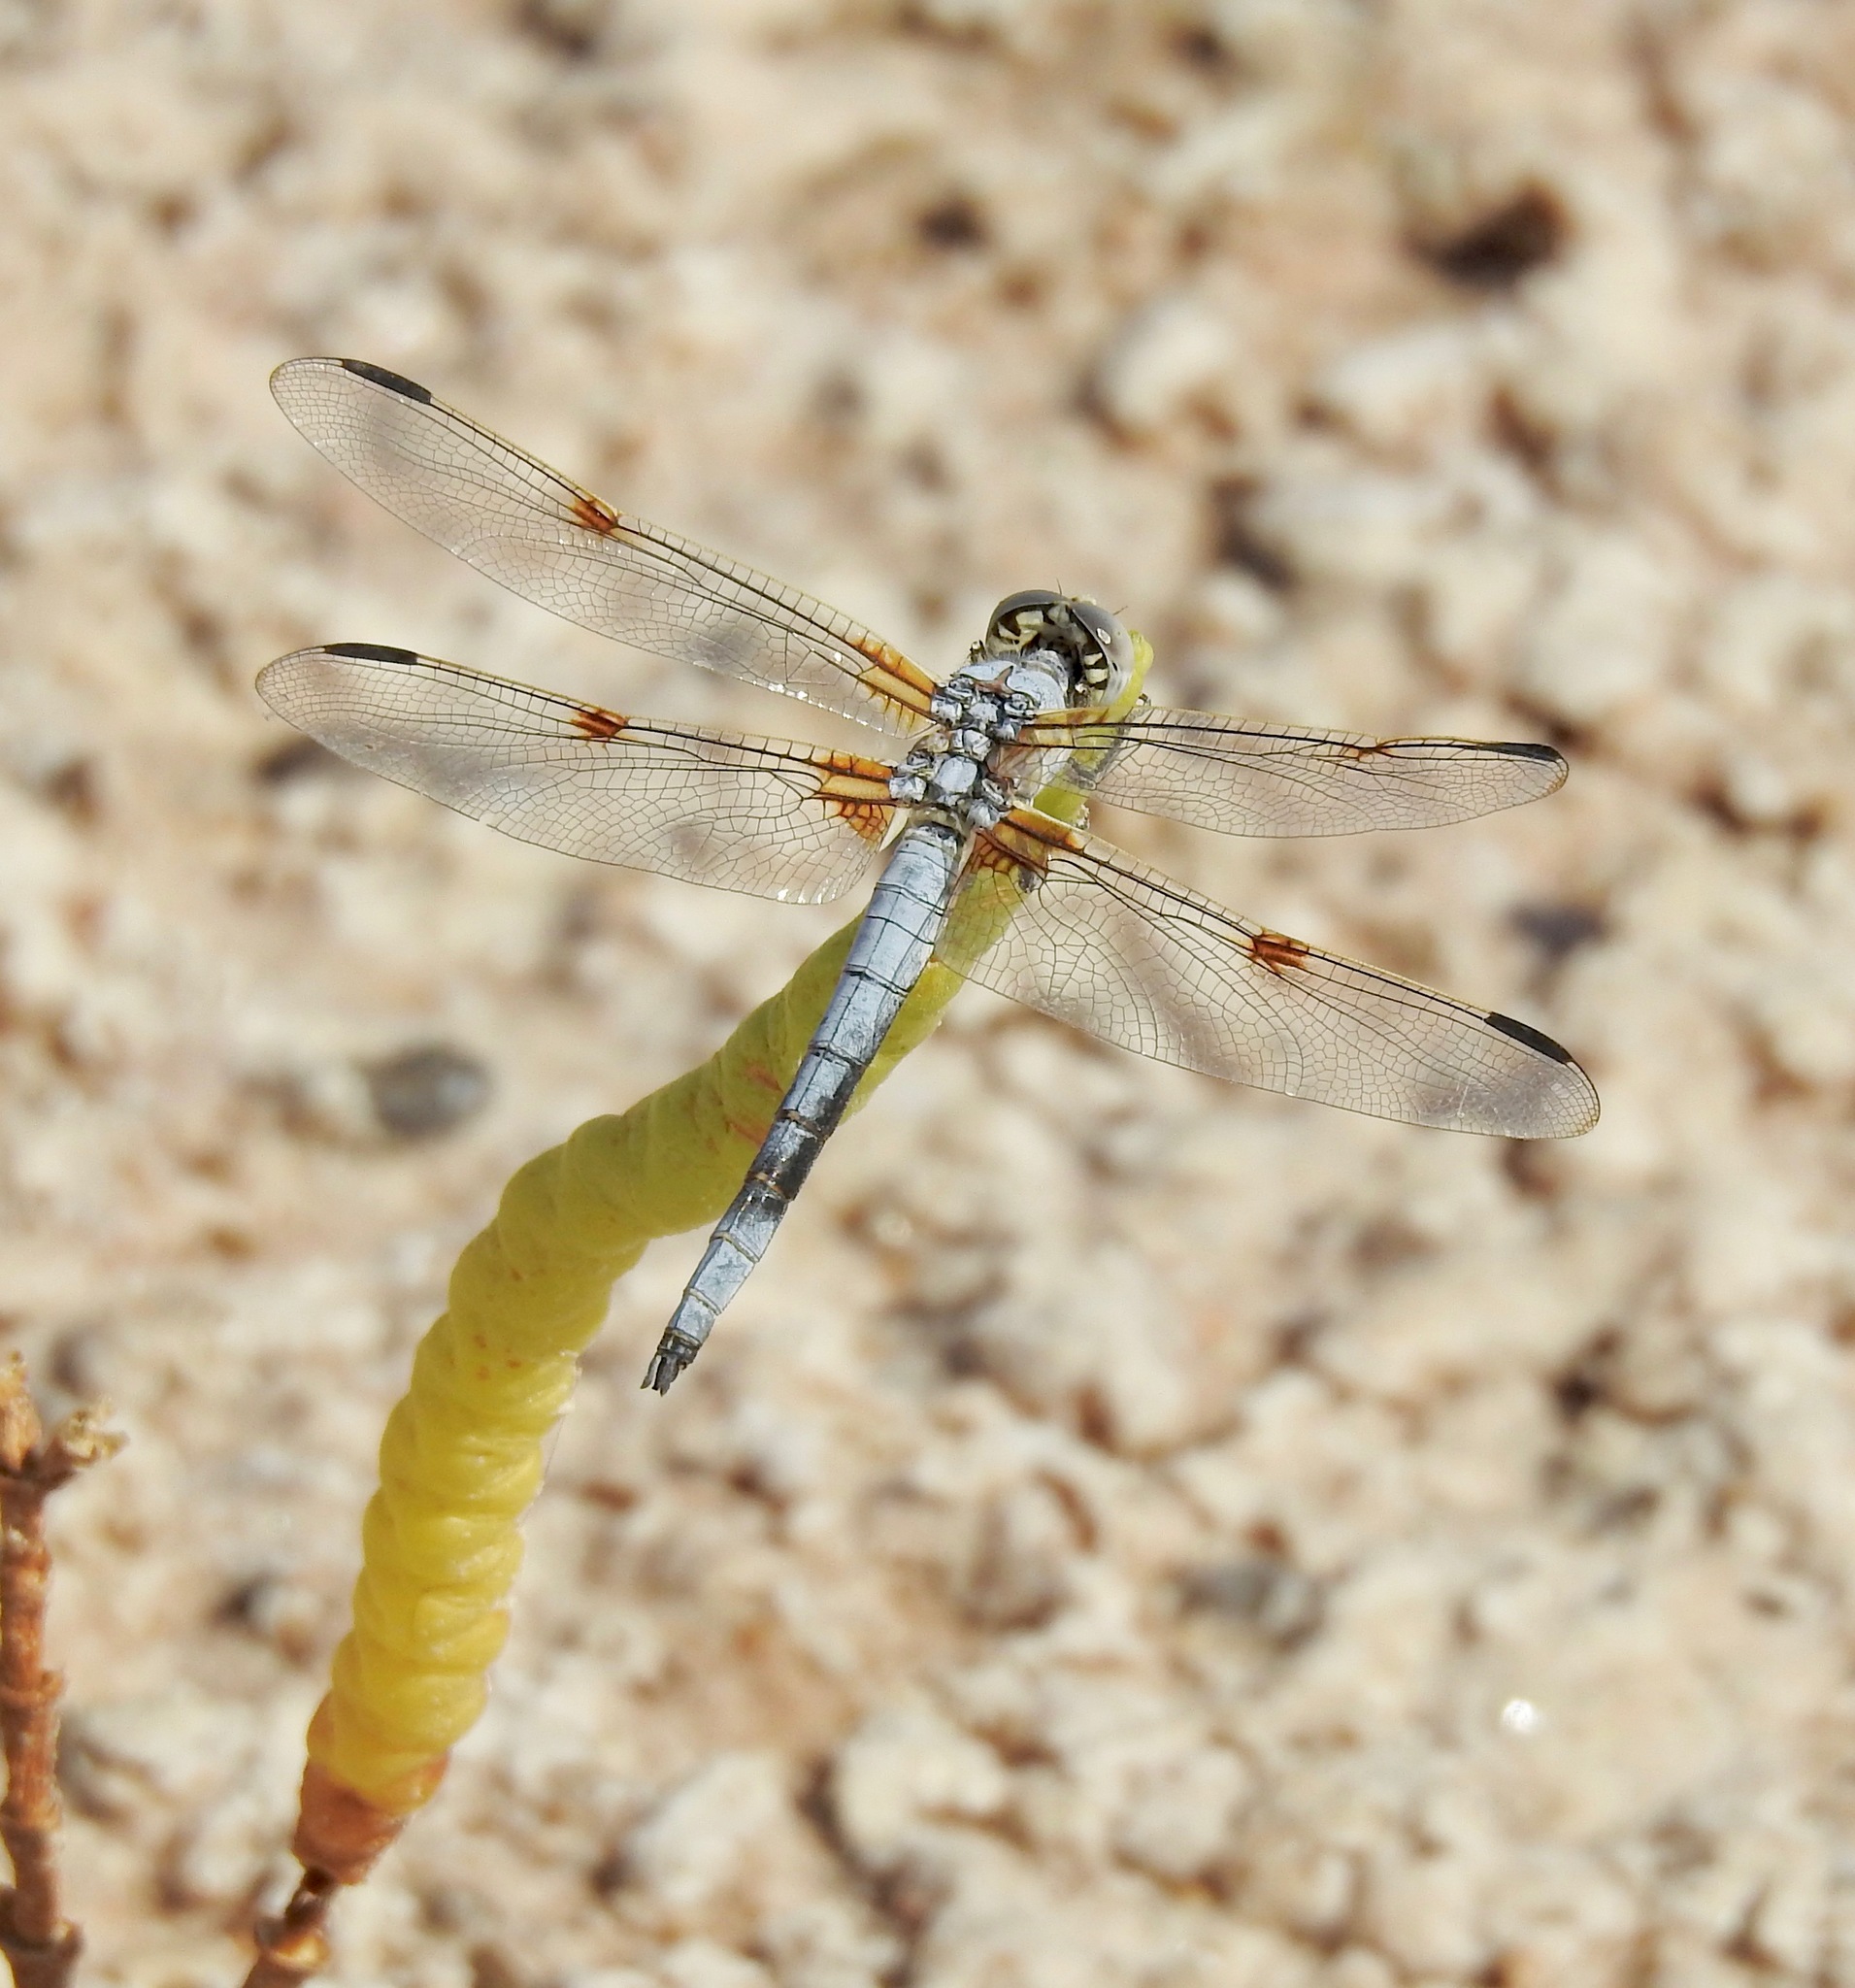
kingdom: Animalia
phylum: Arthropoda
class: Insecta
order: Odonata
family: Libellulidae
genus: Libellula
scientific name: Libellula composita
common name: Bleached skimmer
